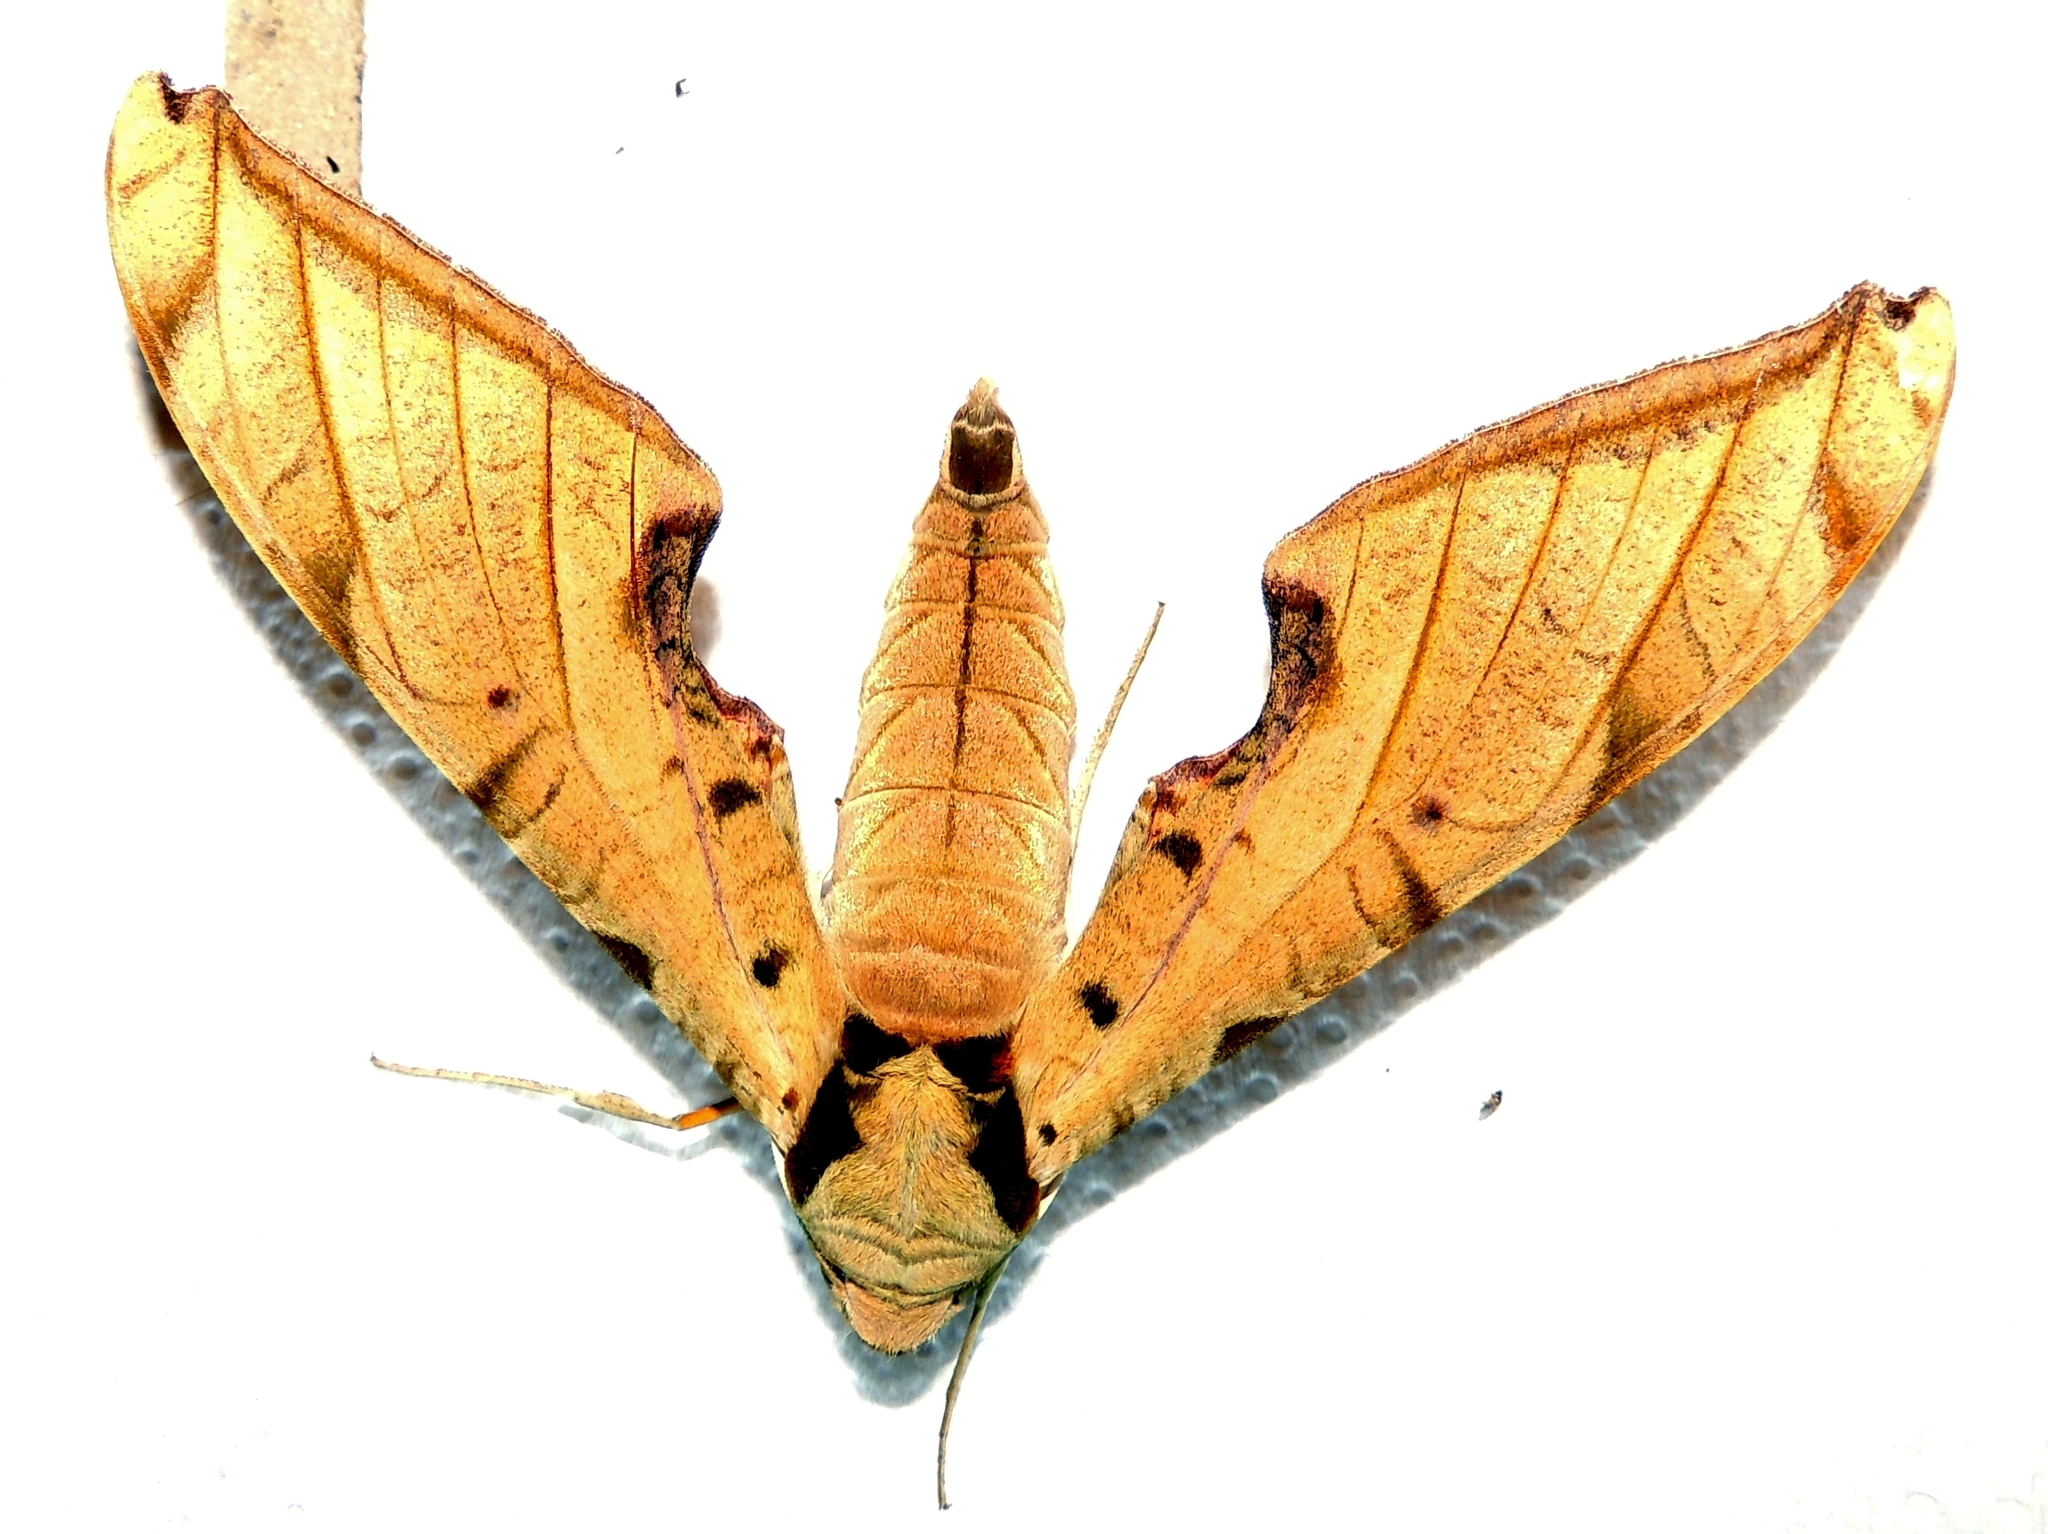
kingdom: Animalia
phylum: Arthropoda
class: Insecta
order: Lepidoptera
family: Sphingidae
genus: Protambulyx
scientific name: Protambulyx strigilis
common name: Streaked sphinx
